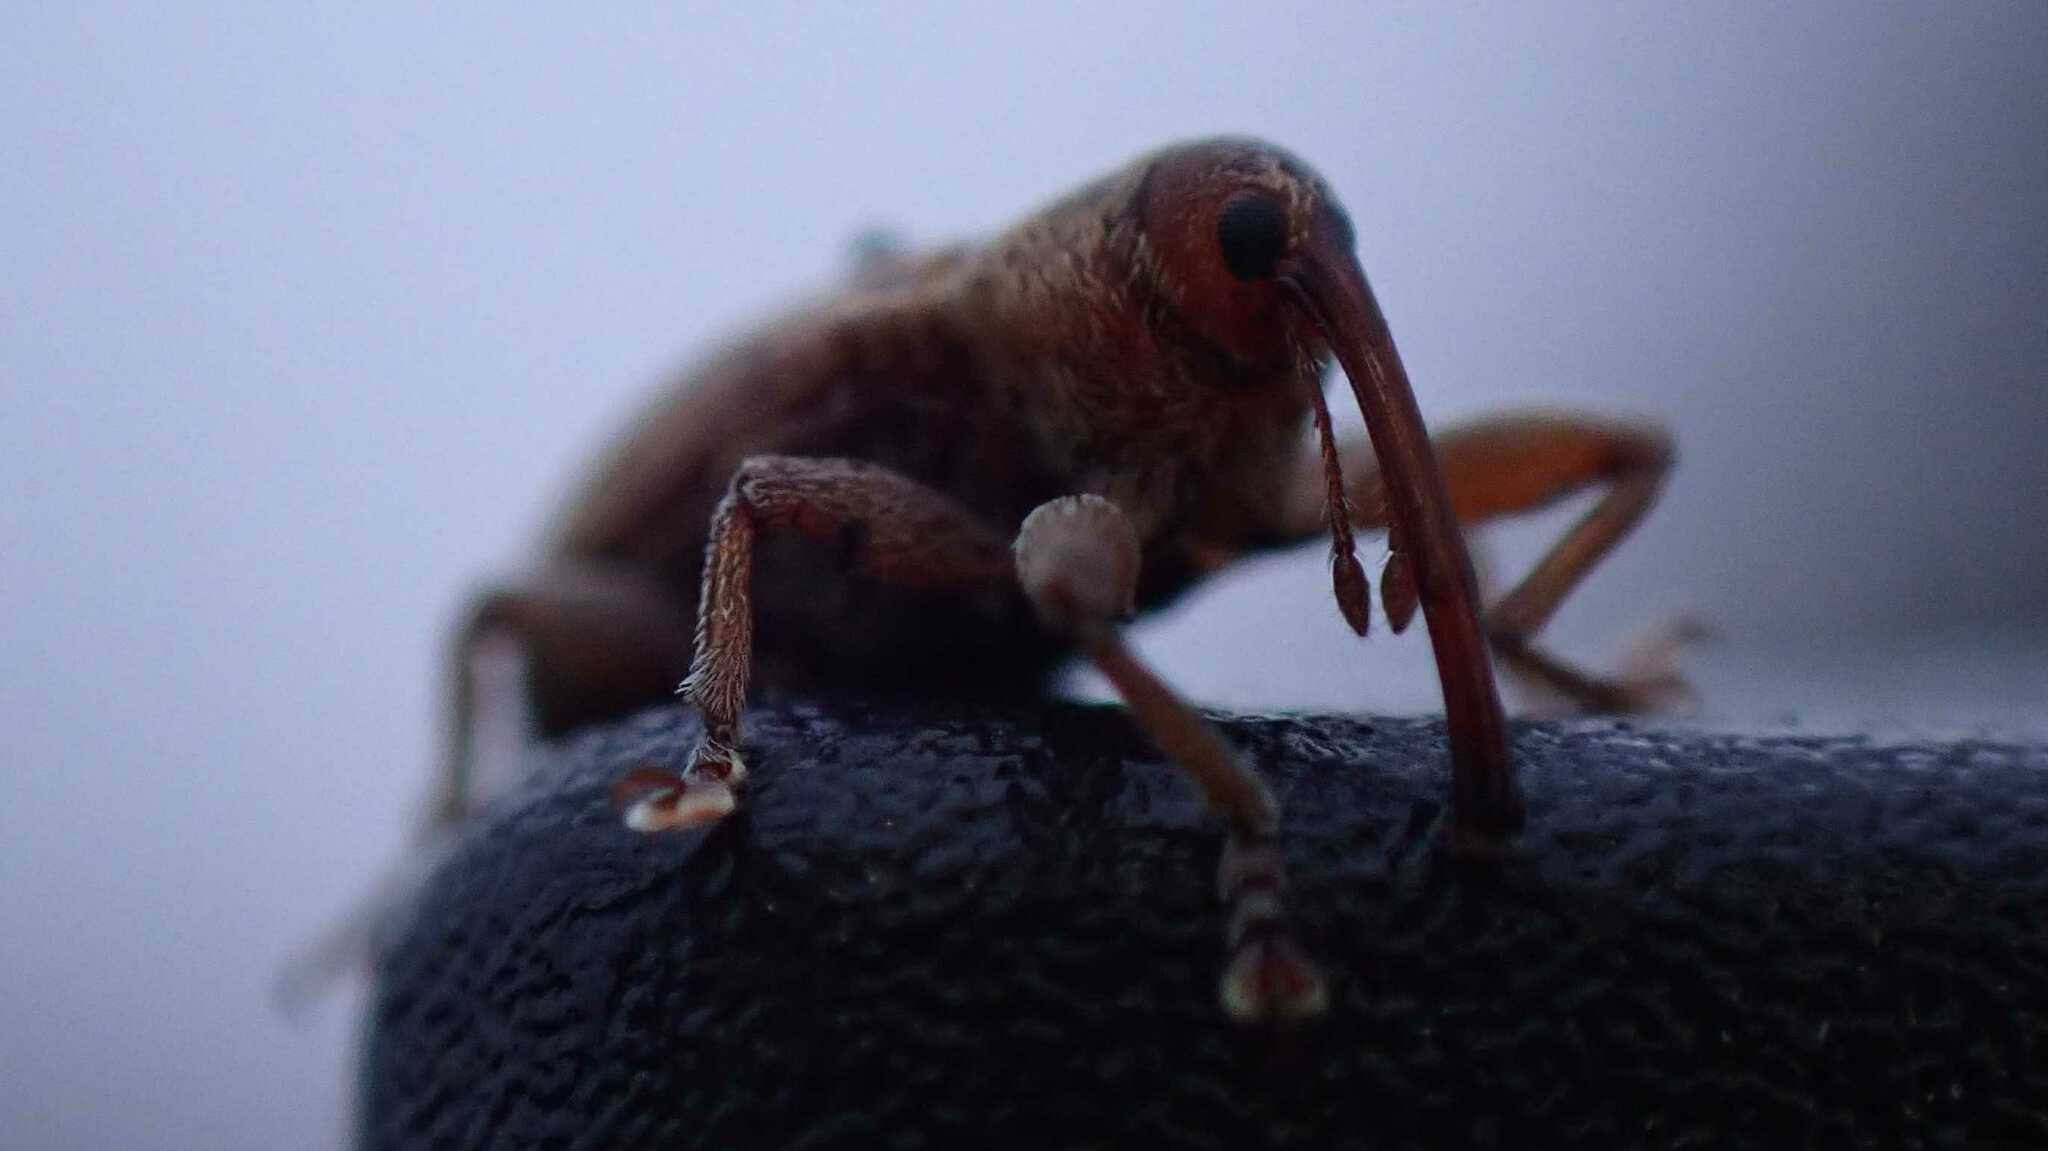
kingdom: Animalia
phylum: Arthropoda
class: Insecta
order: Coleoptera
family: Brachyceridae
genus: Erirhinus
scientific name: Erirhinus filirostris
